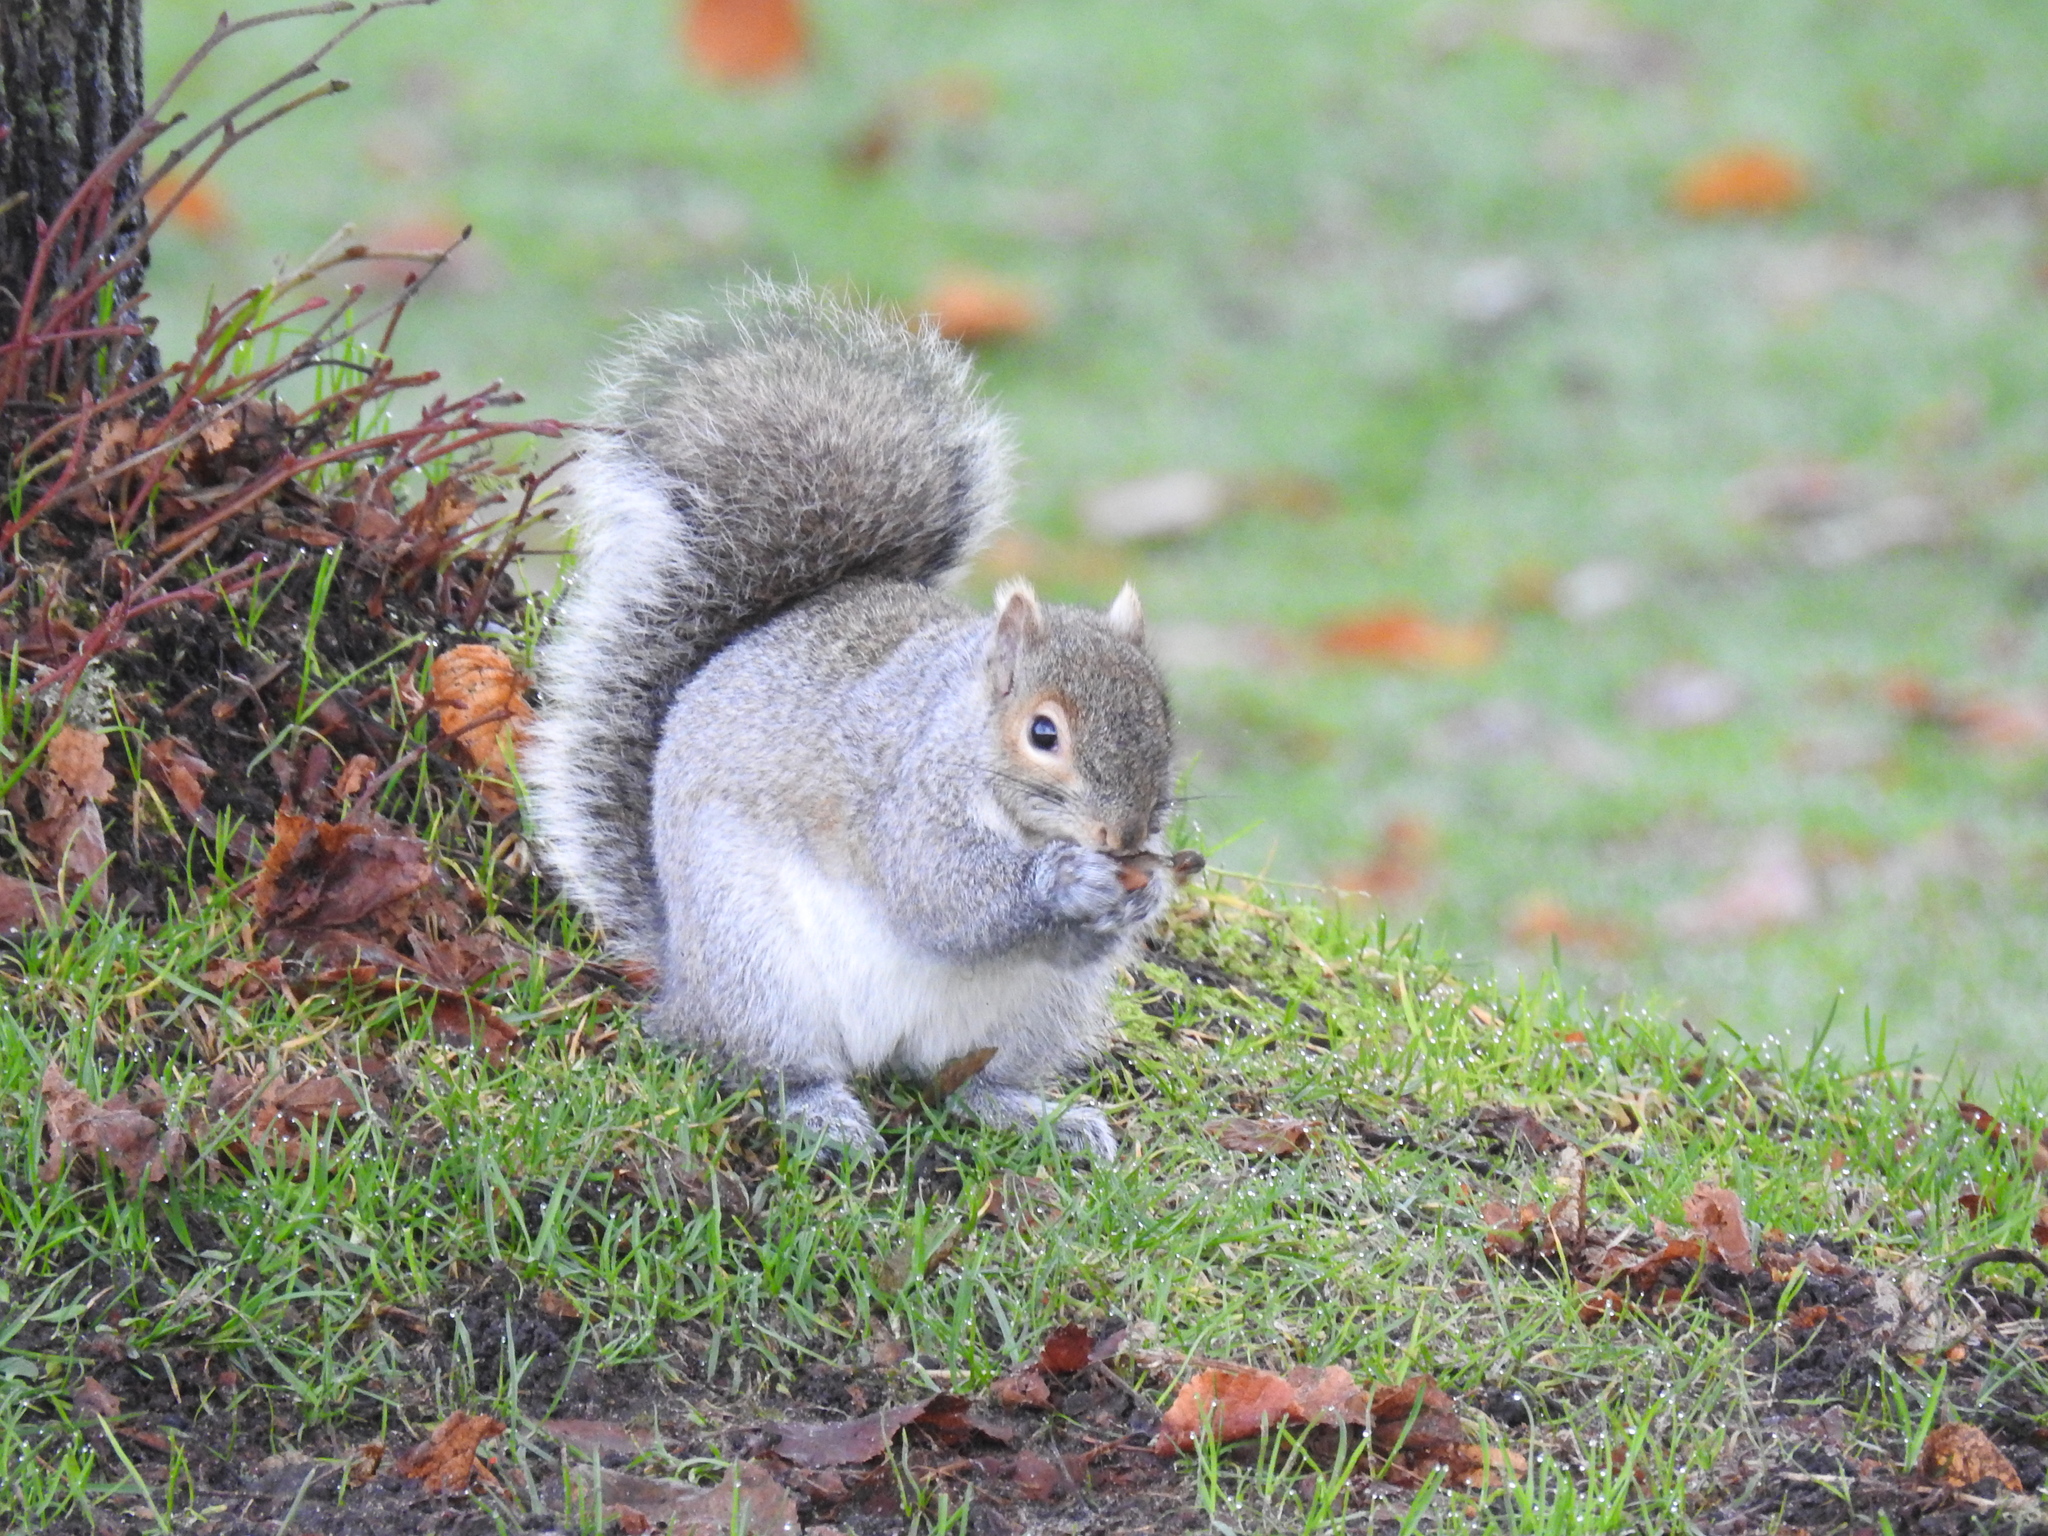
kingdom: Animalia
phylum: Chordata
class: Mammalia
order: Rodentia
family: Sciuridae
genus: Sciurus
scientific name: Sciurus carolinensis
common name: Eastern gray squirrel
